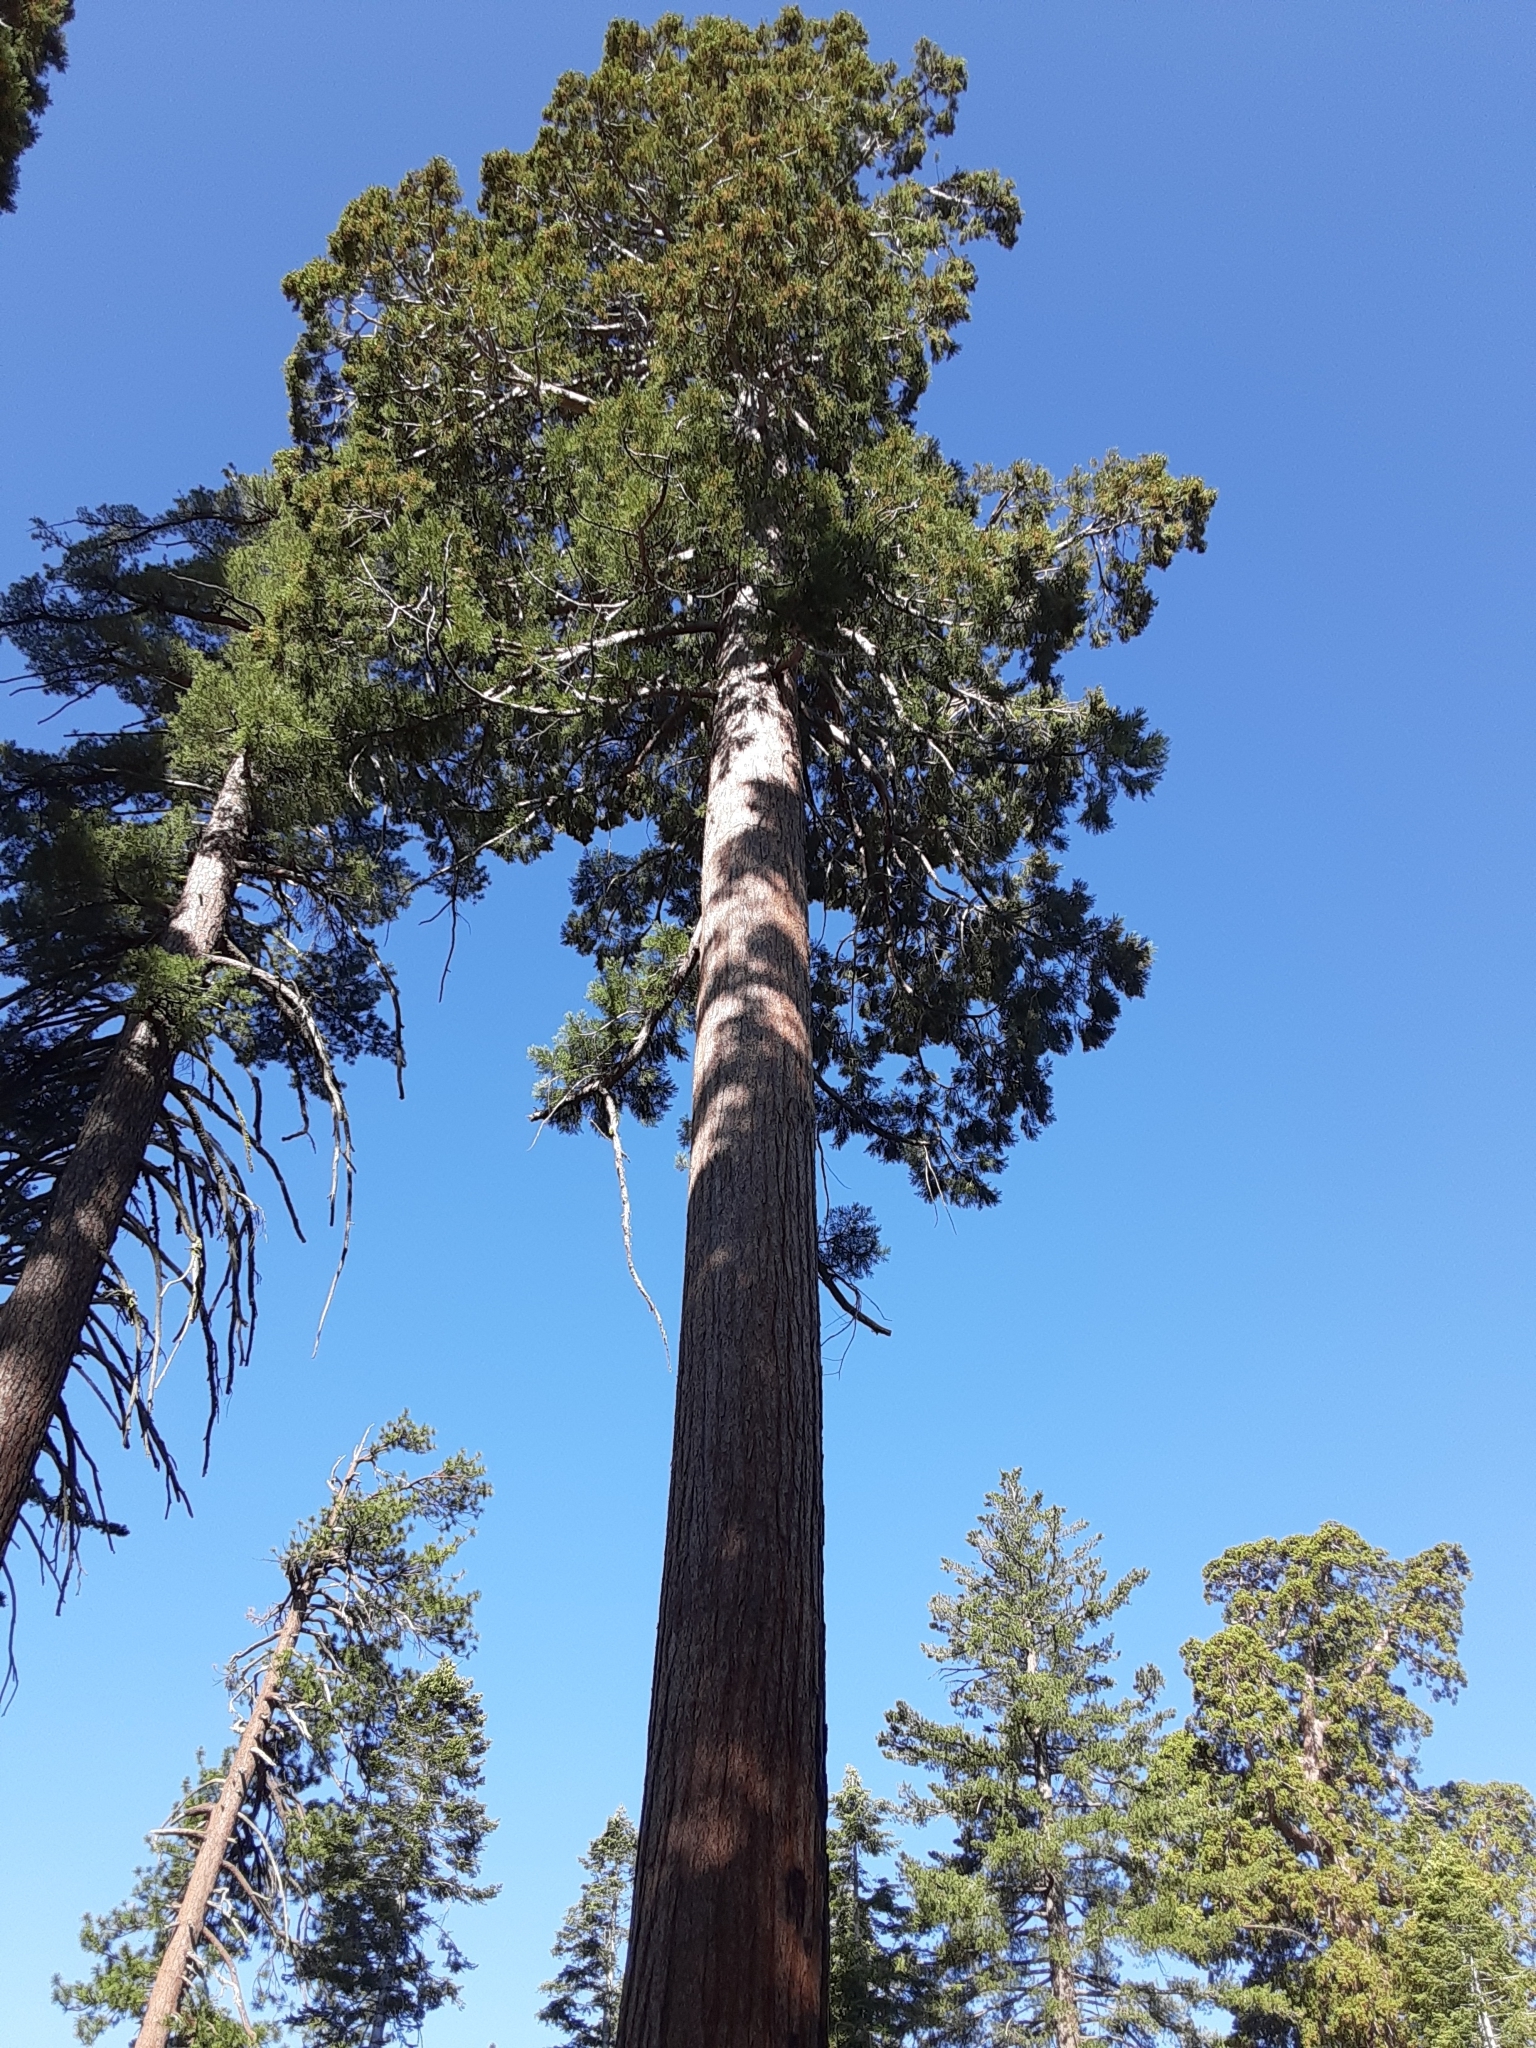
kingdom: Plantae
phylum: Tracheophyta
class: Pinopsida
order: Pinales
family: Cupressaceae
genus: Sequoiadendron
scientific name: Sequoiadendron giganteum
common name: Wellingtonia
